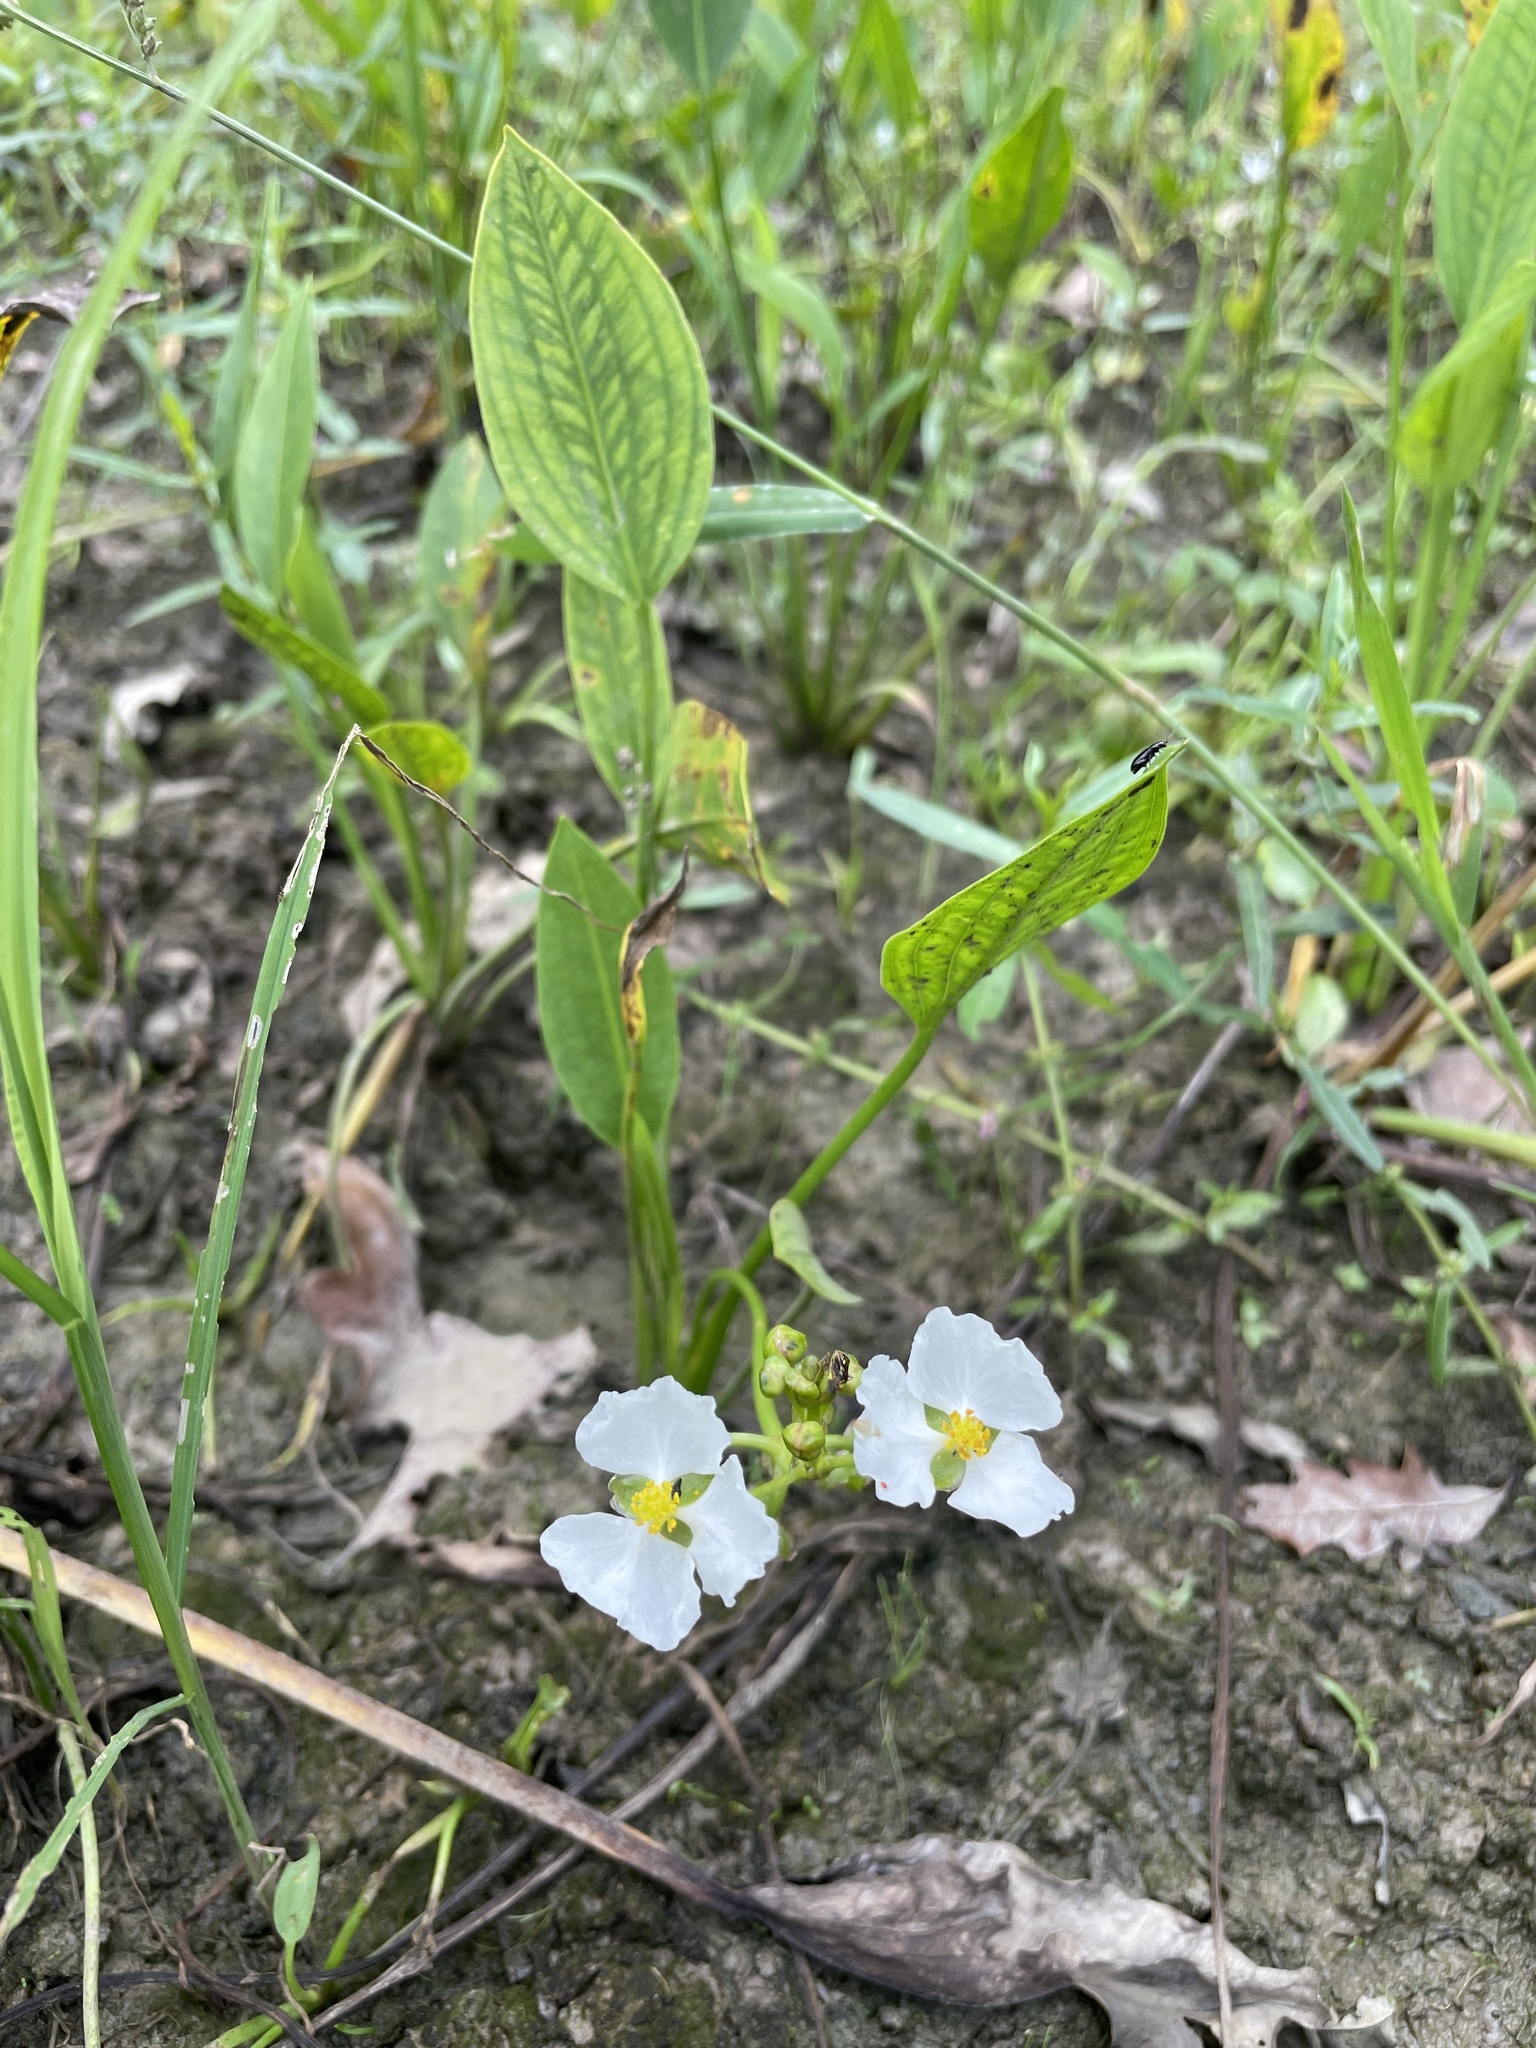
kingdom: Plantae
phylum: Tracheophyta
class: Liliopsida
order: Alismatales
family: Alismataceae
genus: Sagittaria
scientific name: Sagittaria platyphylla
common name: Broad-leaf arrowhead
